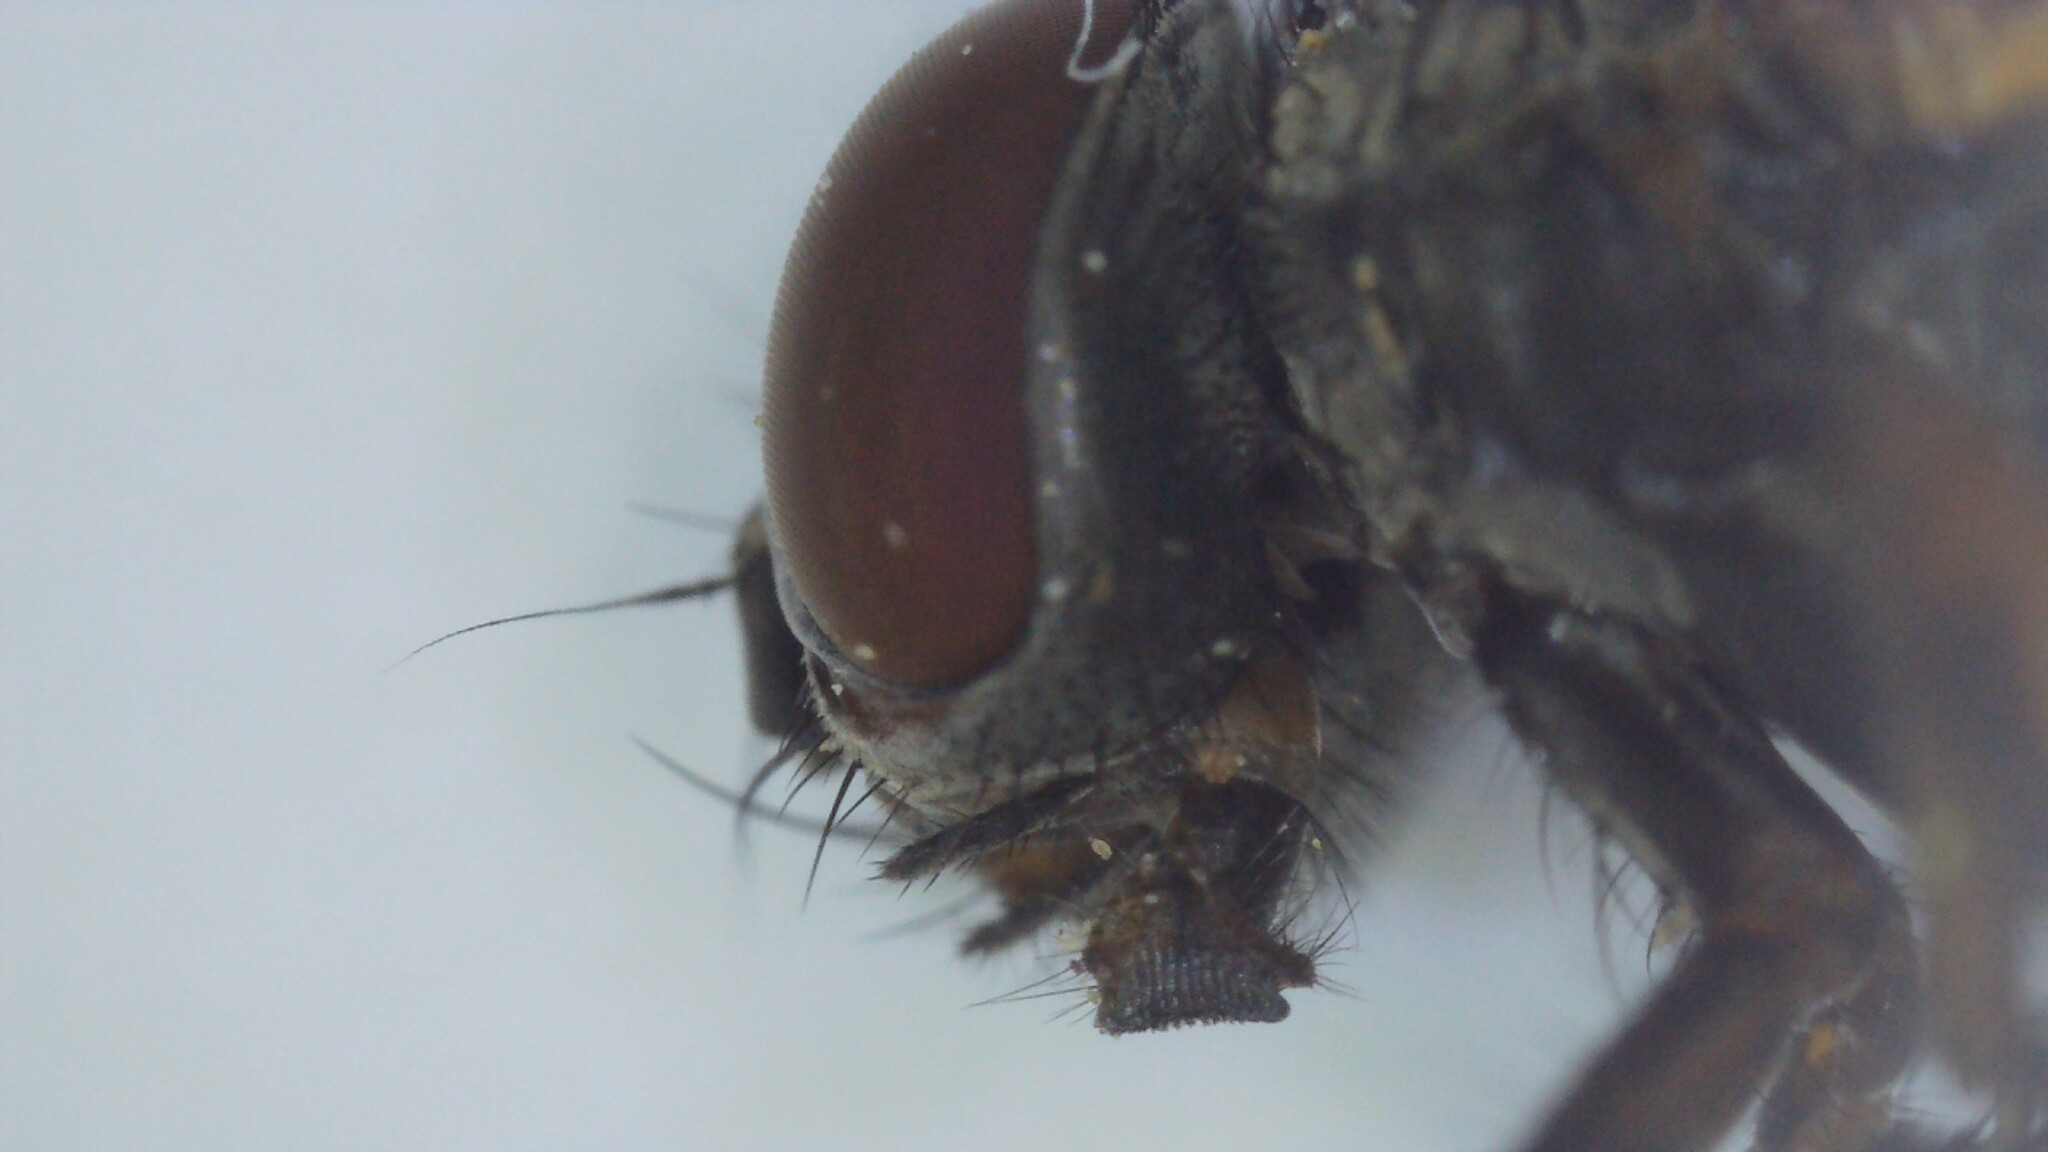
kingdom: Animalia
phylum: Arthropoda
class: Insecta
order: Diptera
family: Fanniidae
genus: Fannia
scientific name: Fannia lustrator
